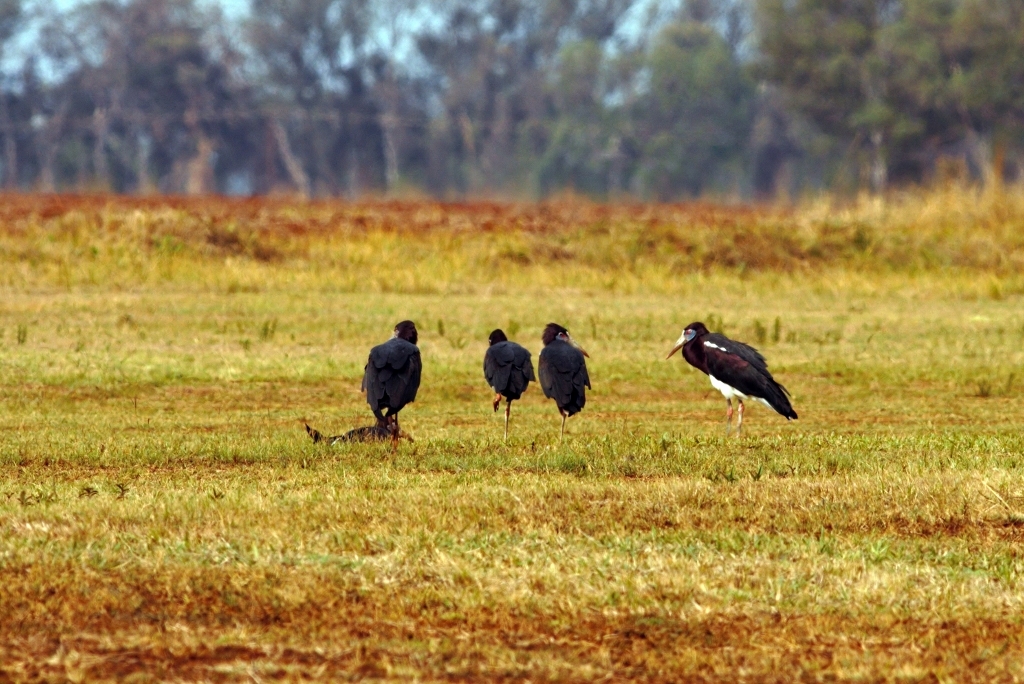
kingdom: Animalia
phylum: Chordata
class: Aves
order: Ciconiiformes
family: Ciconiidae
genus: Ciconia
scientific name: Ciconia abdimii
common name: Abdim's stork
